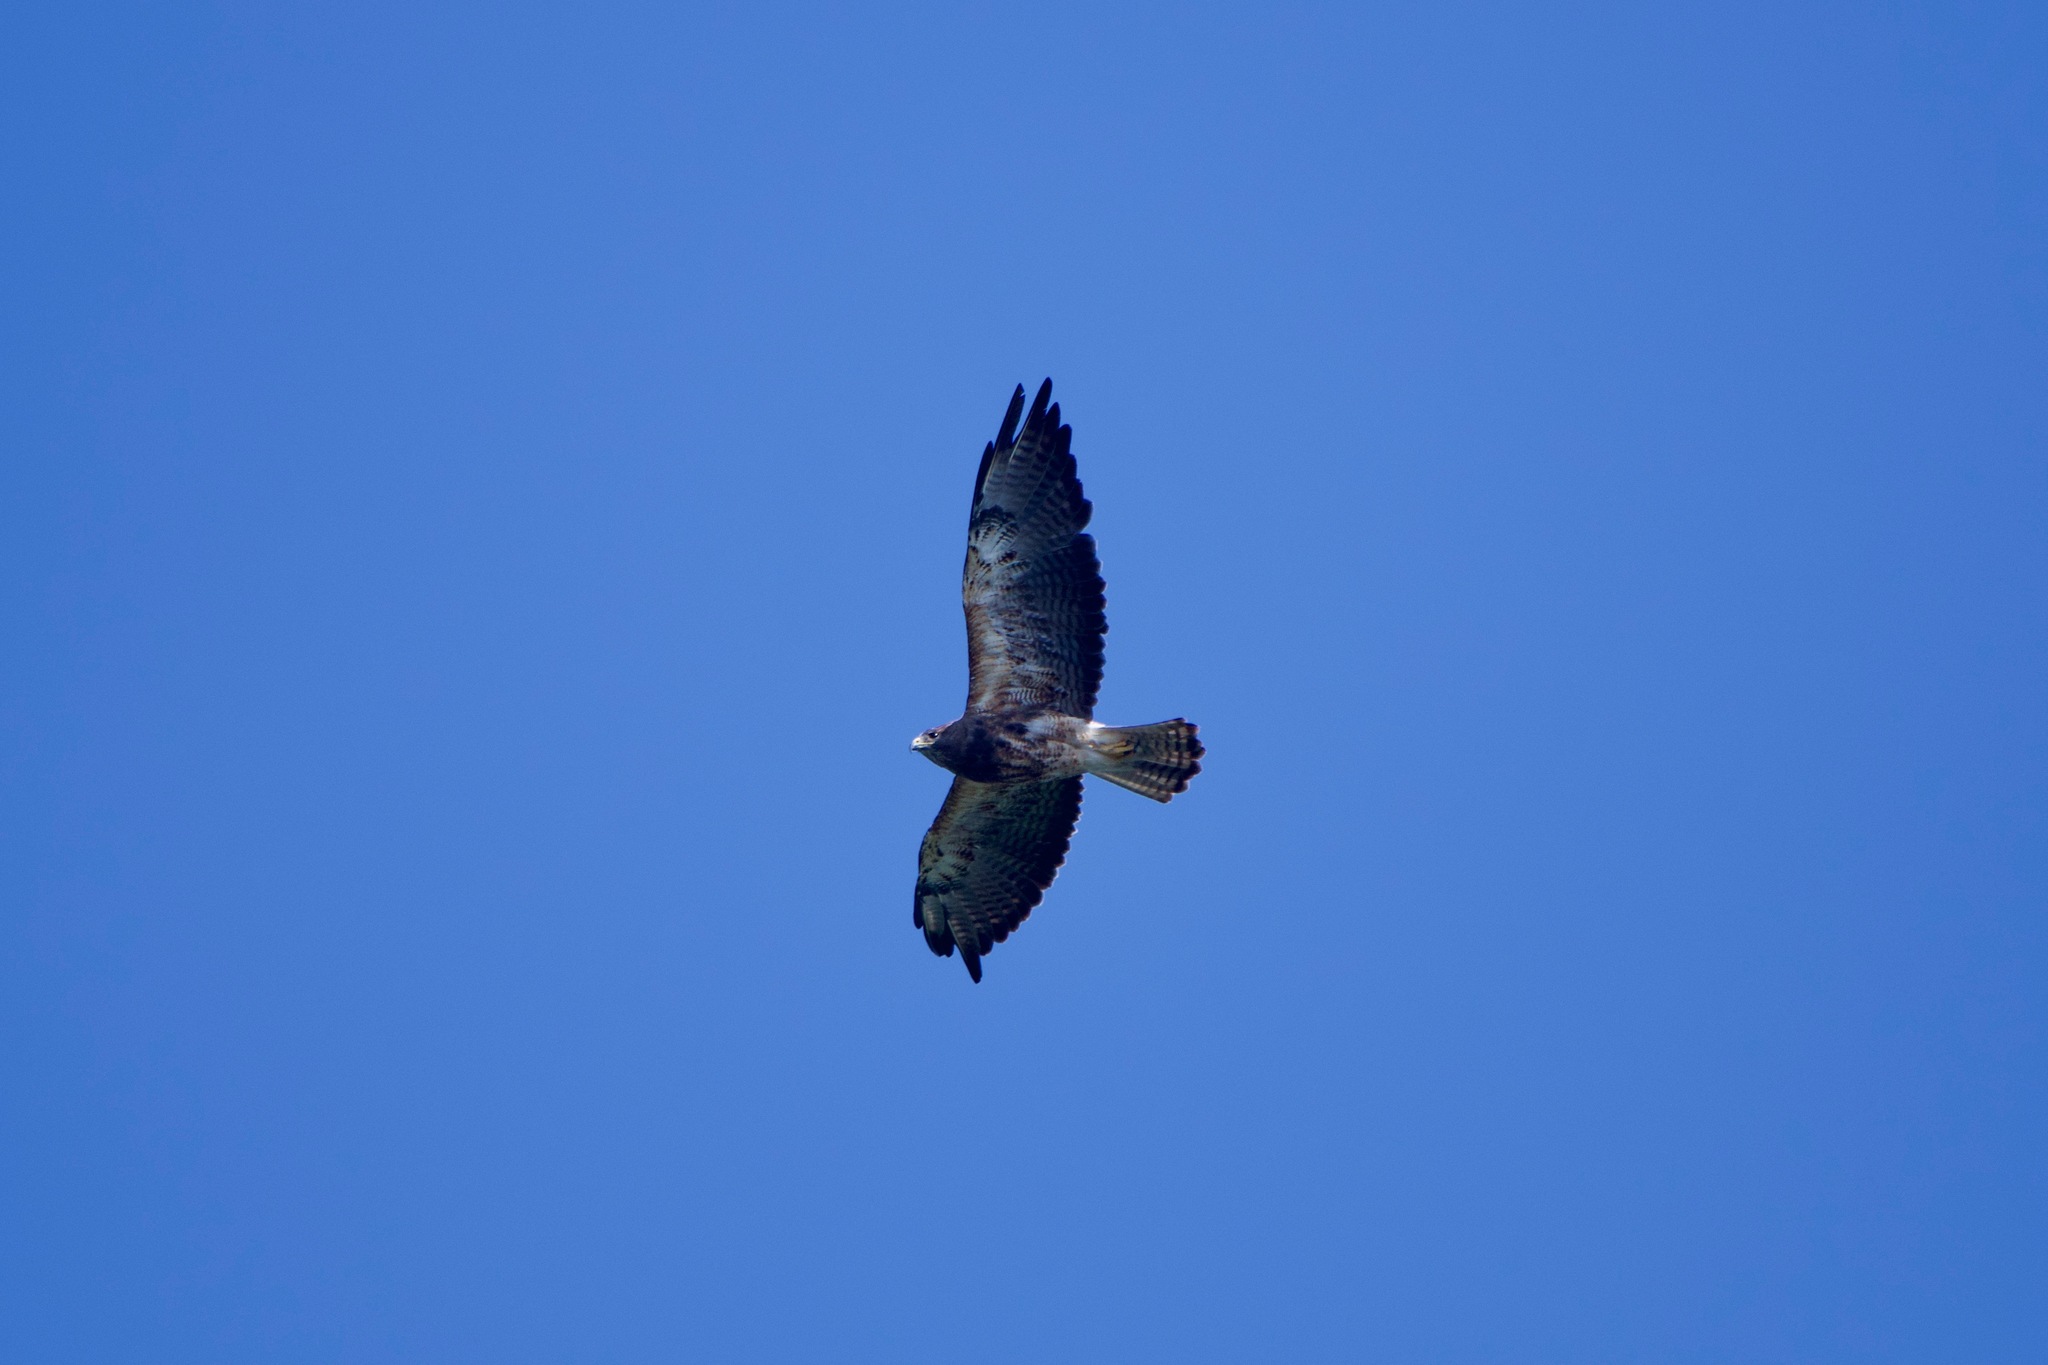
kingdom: Animalia
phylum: Chordata
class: Aves
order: Accipitriformes
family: Accipitridae
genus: Buteo
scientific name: Buteo swainsoni
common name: Swainson's hawk
